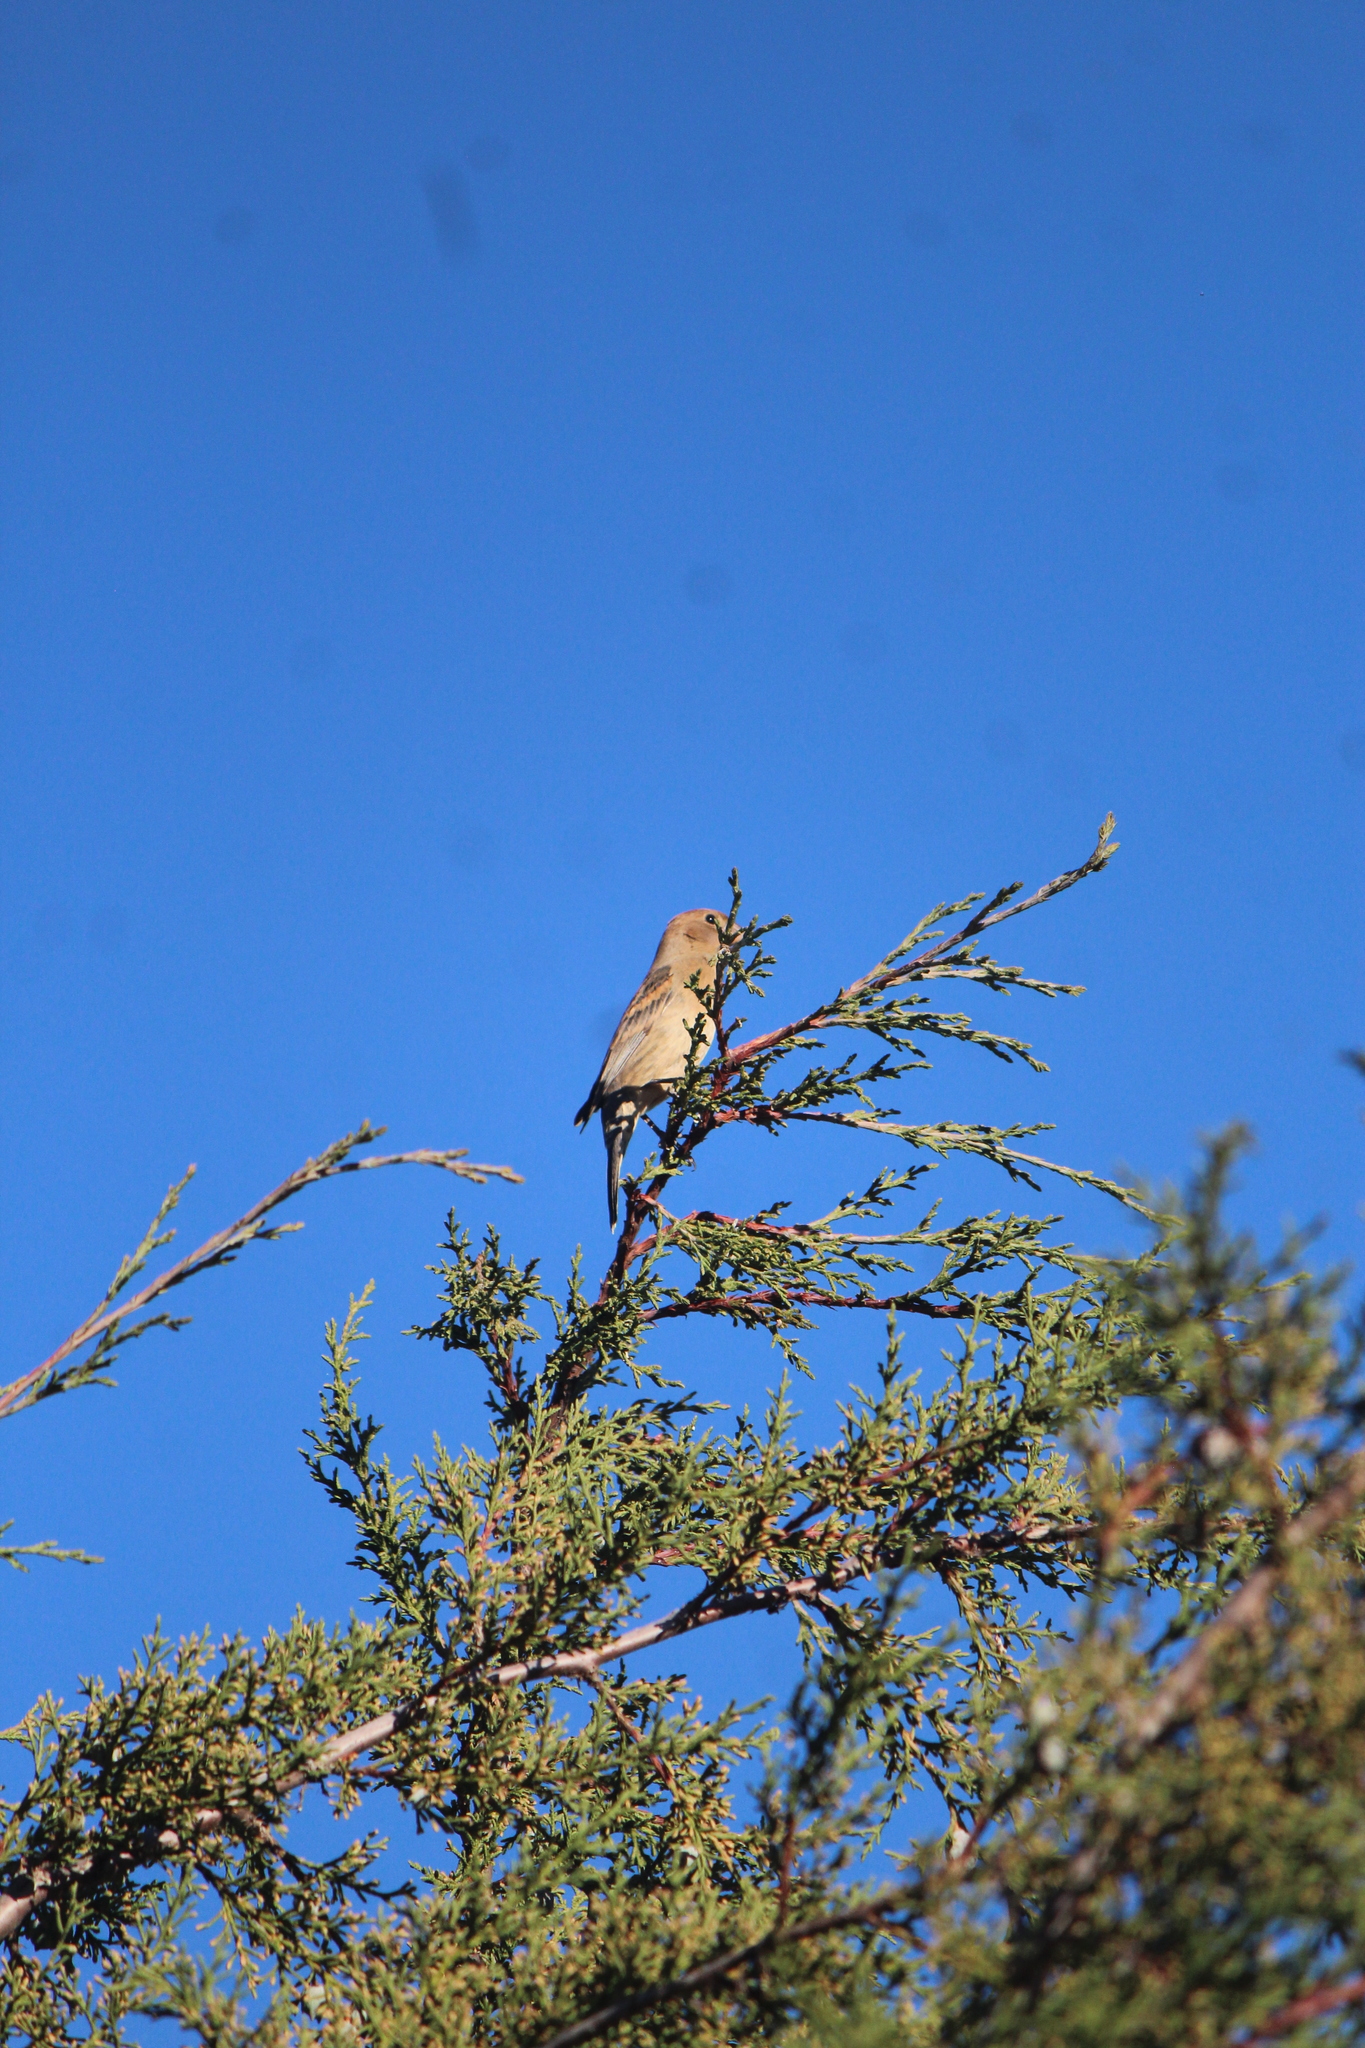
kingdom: Animalia
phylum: Chordata
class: Aves
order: Passeriformes
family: Cardinalidae
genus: Passerina
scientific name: Passerina caerulea
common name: Blue grosbeak
